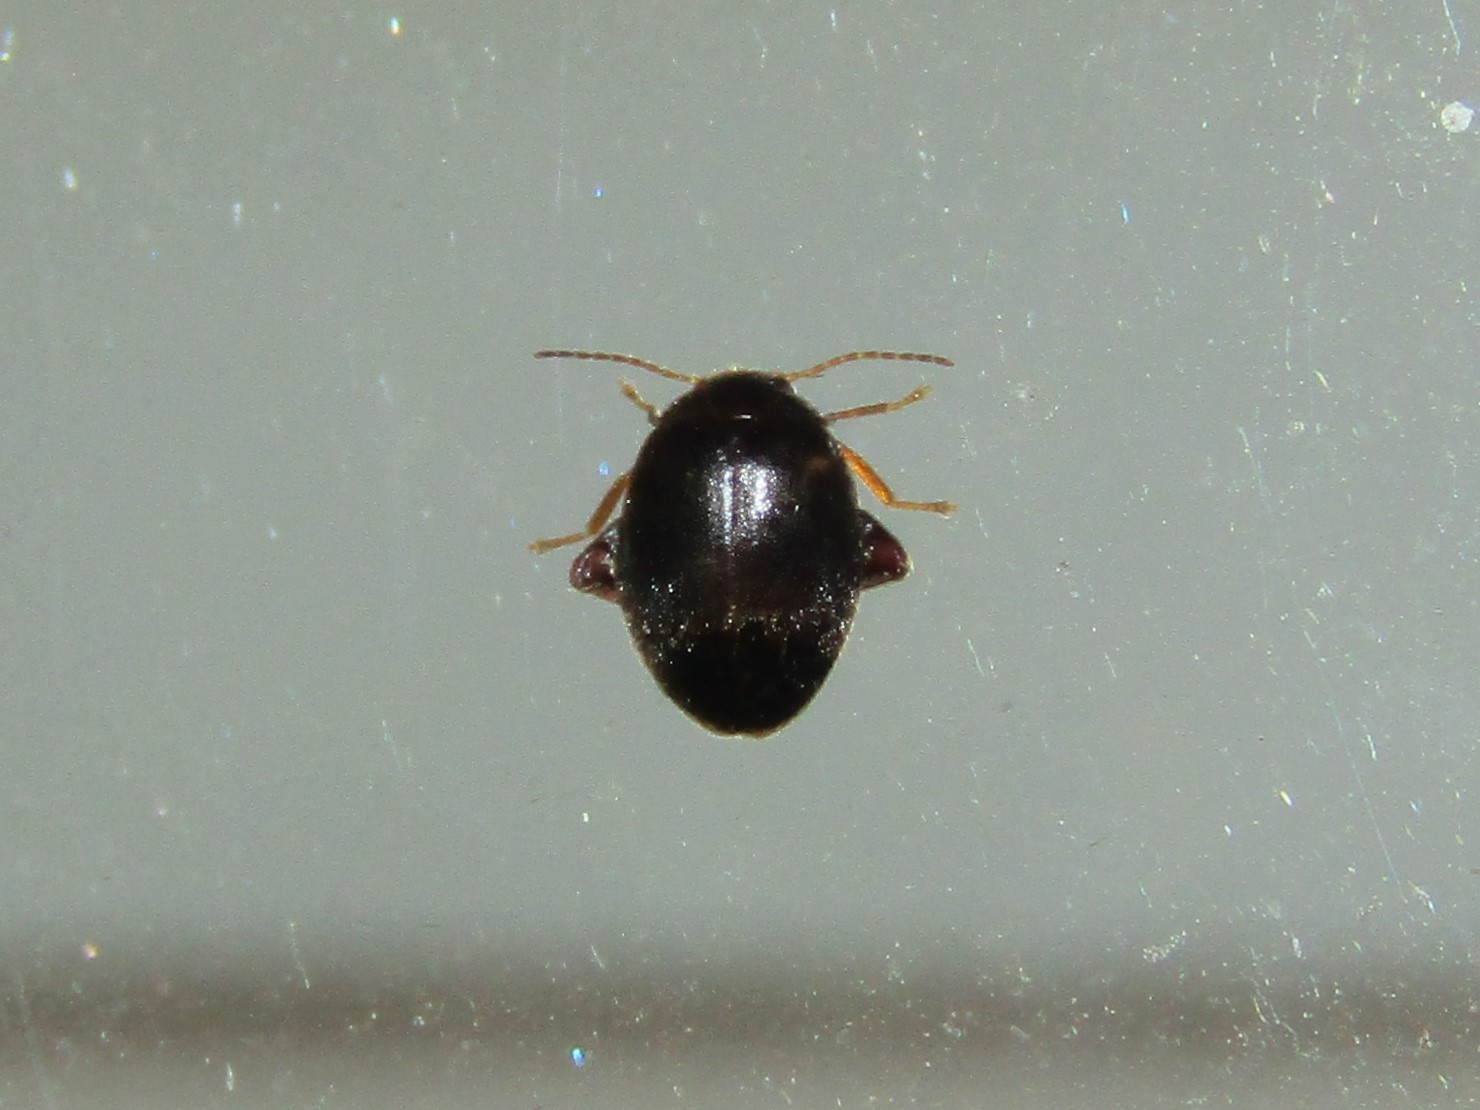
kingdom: Animalia
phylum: Arthropoda
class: Insecta
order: Coleoptera
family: Scirtidae
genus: Scirtes
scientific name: Scirtes tibialis
